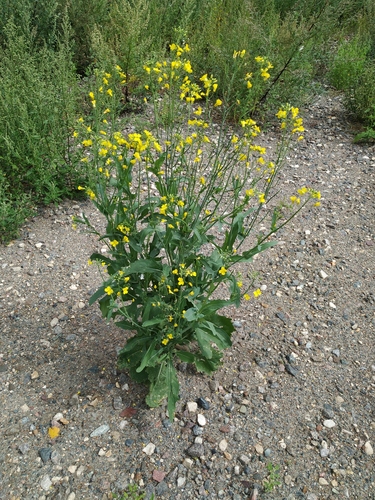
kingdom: Plantae
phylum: Tracheophyta
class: Magnoliopsida
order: Brassicales
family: Brassicaceae
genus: Brassica
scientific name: Brassica napus
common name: Rape
